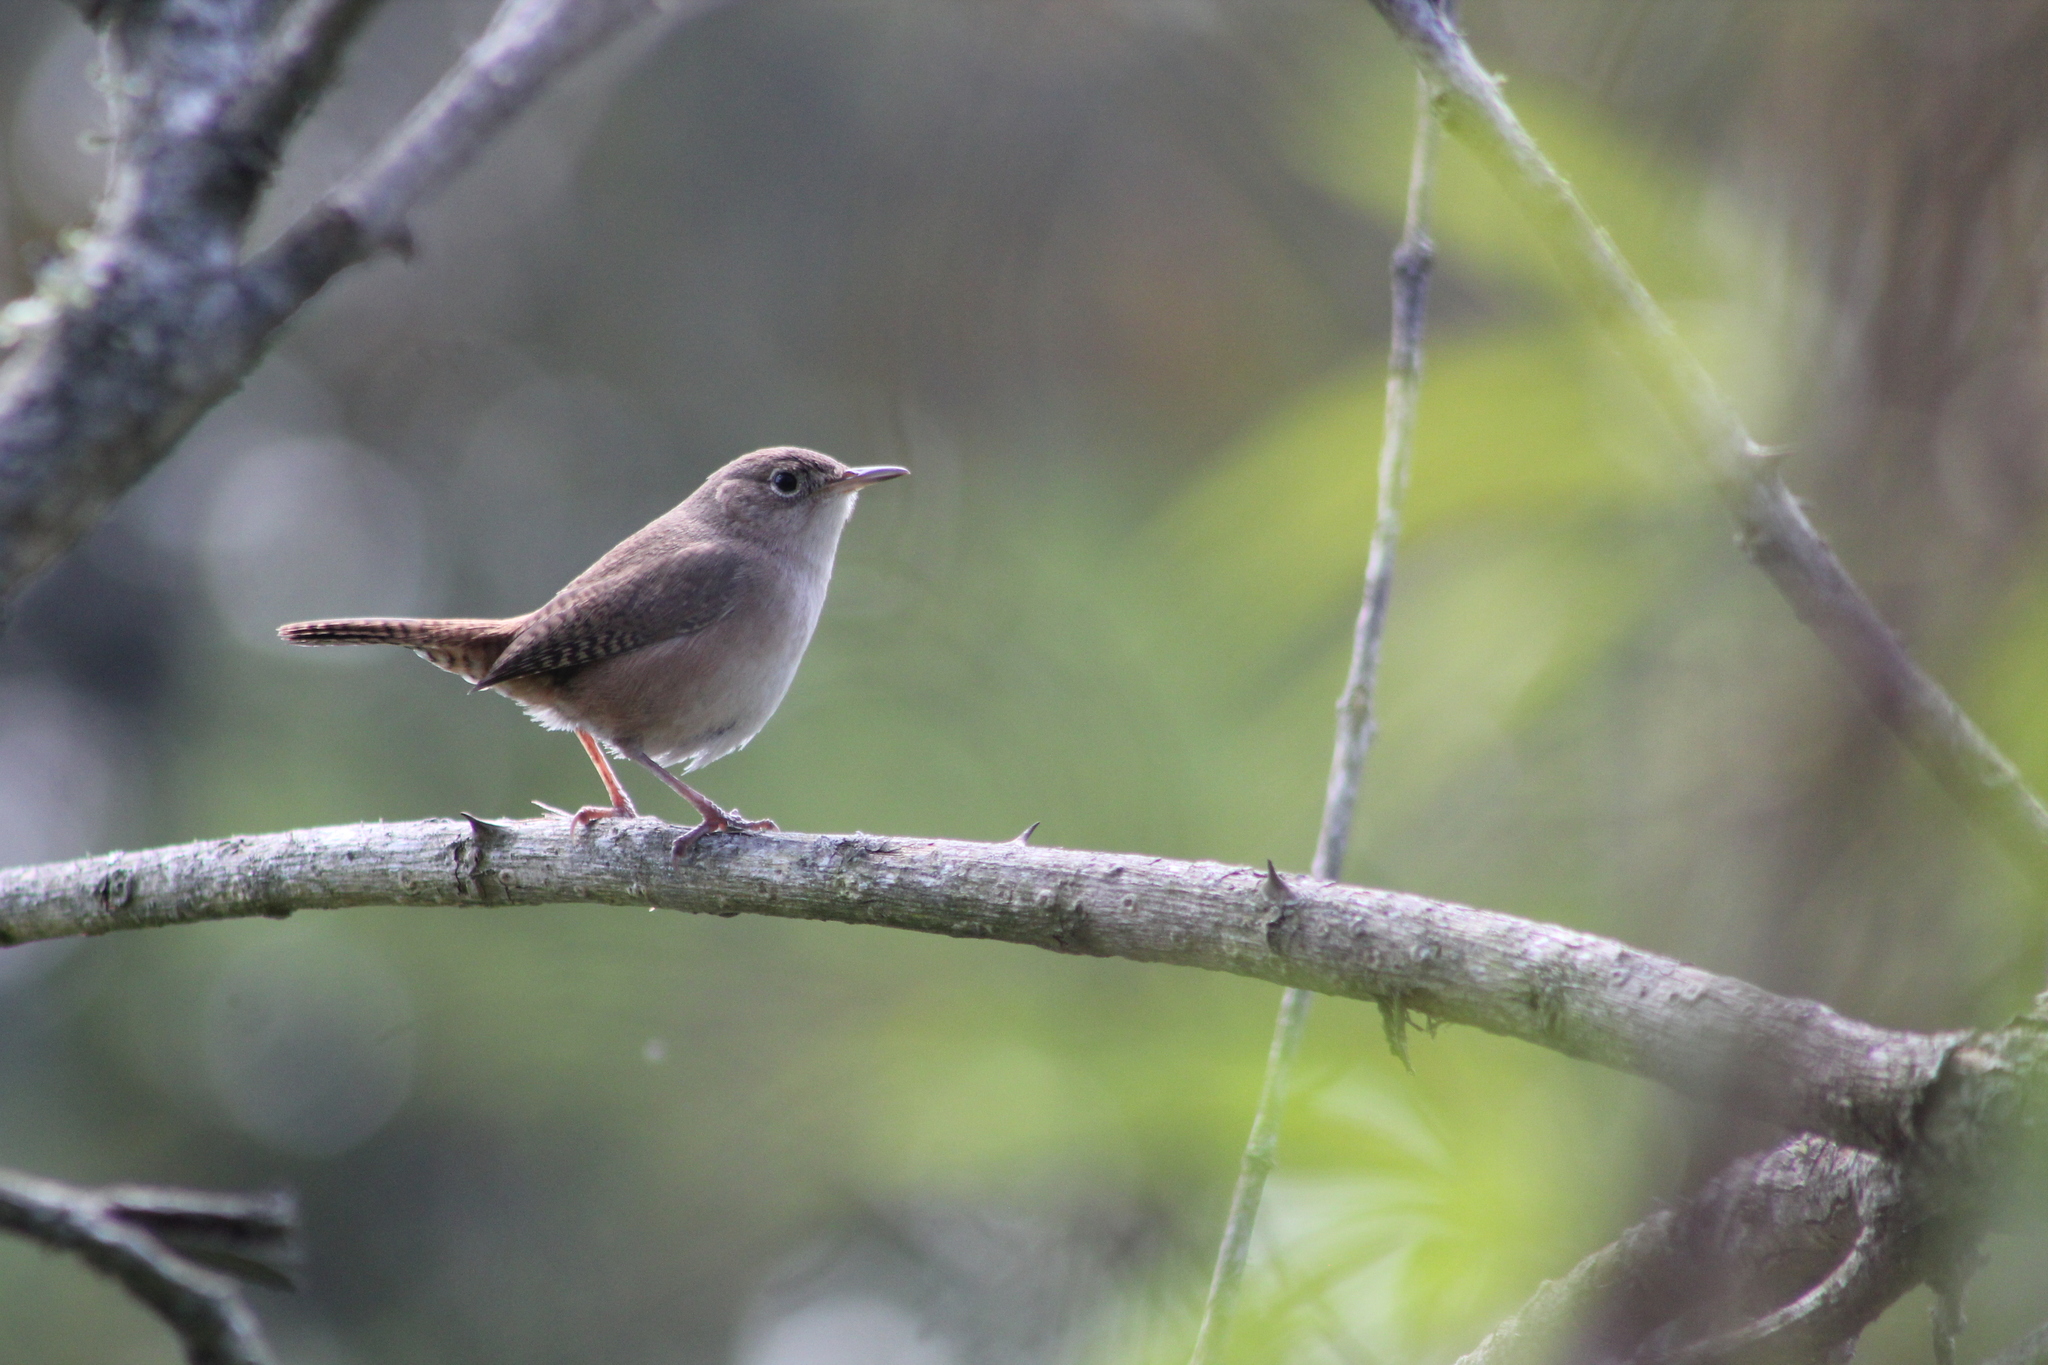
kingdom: Animalia
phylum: Chordata
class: Aves
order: Passeriformes
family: Troglodytidae
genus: Troglodytes
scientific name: Troglodytes aedon
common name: House wren
